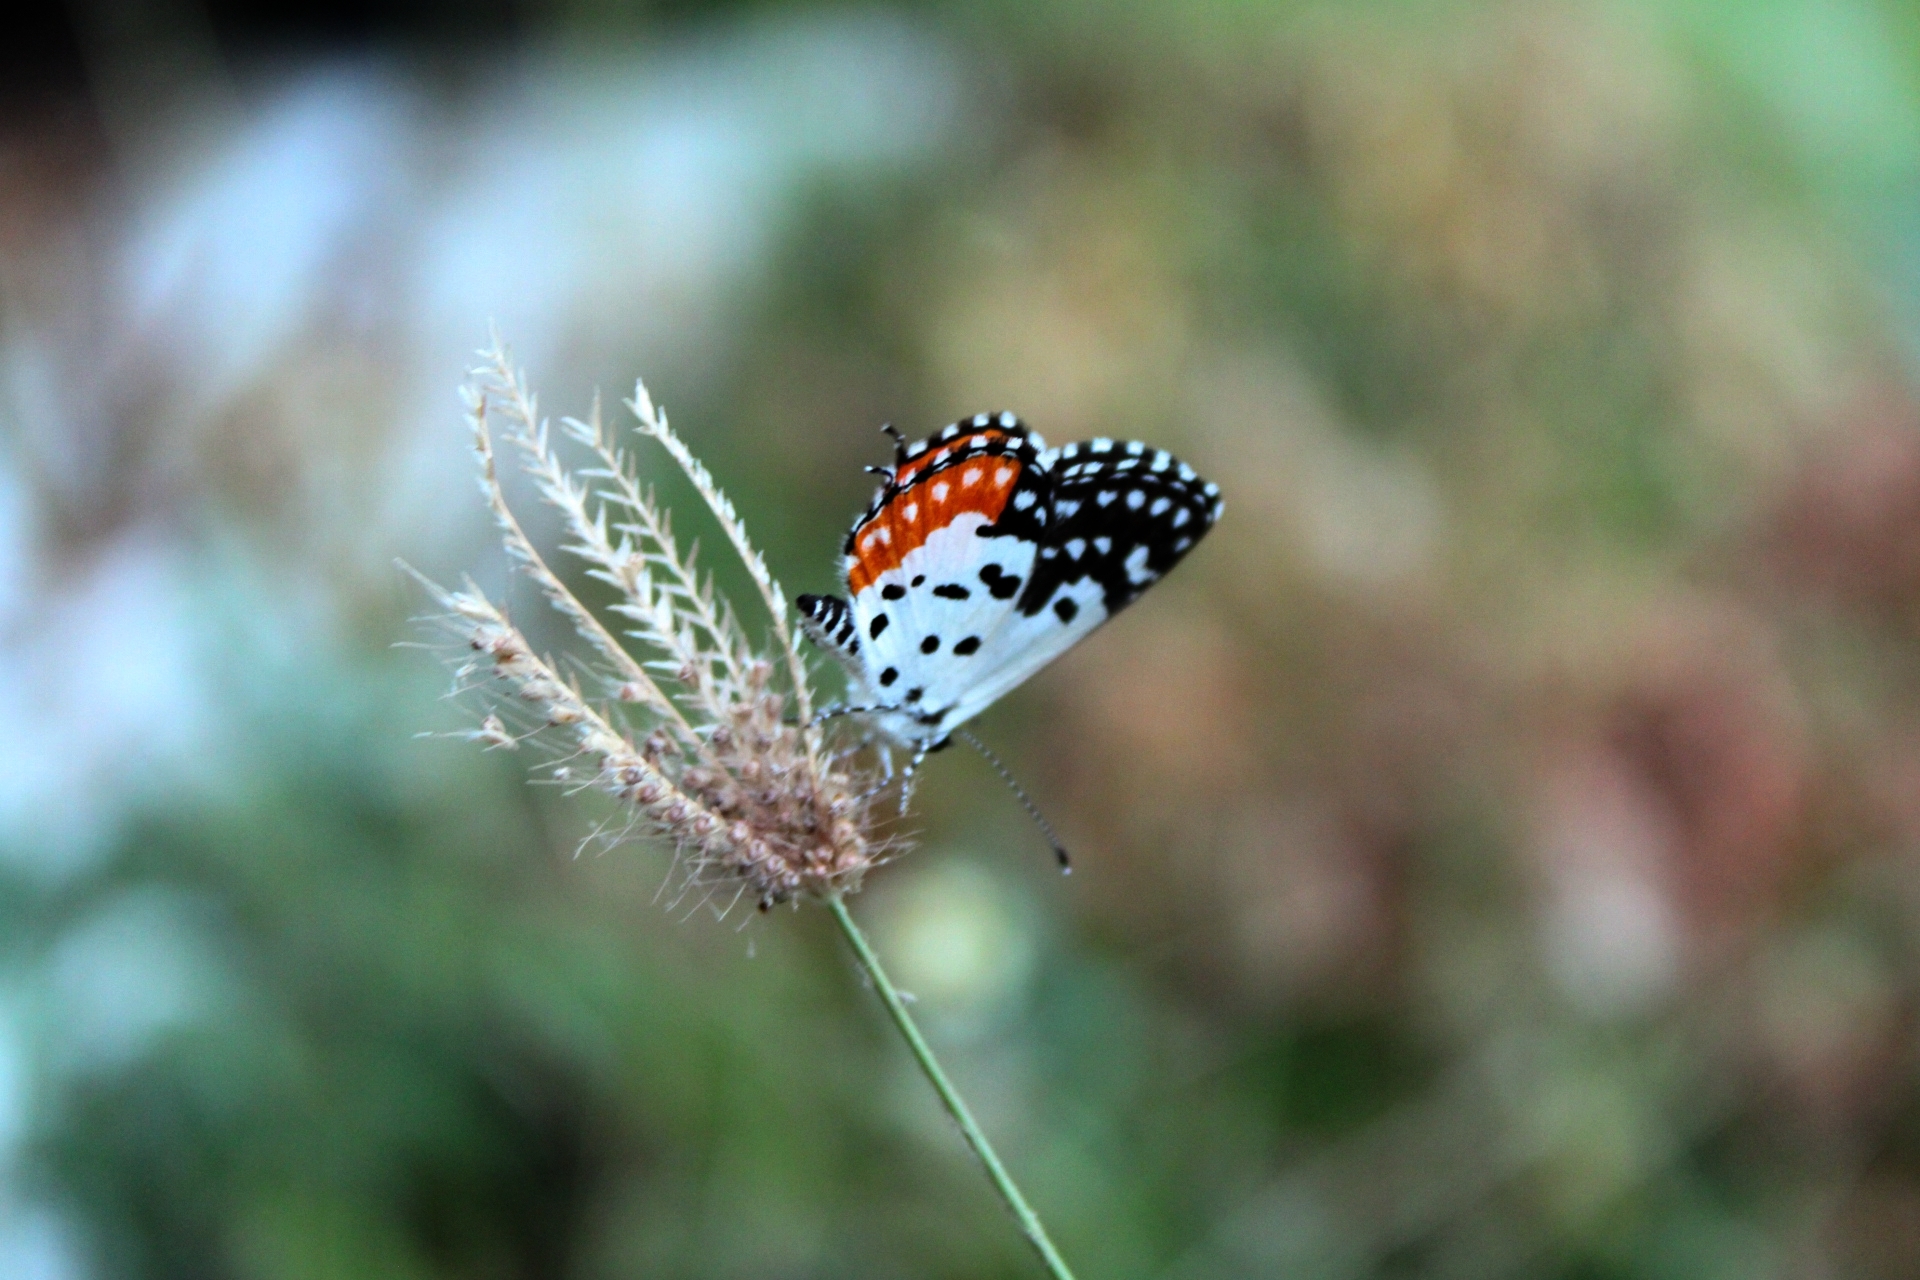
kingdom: Animalia
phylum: Arthropoda
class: Insecta
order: Lepidoptera
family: Lycaenidae
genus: Talicada
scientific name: Talicada nyseus
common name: Red pierrot
